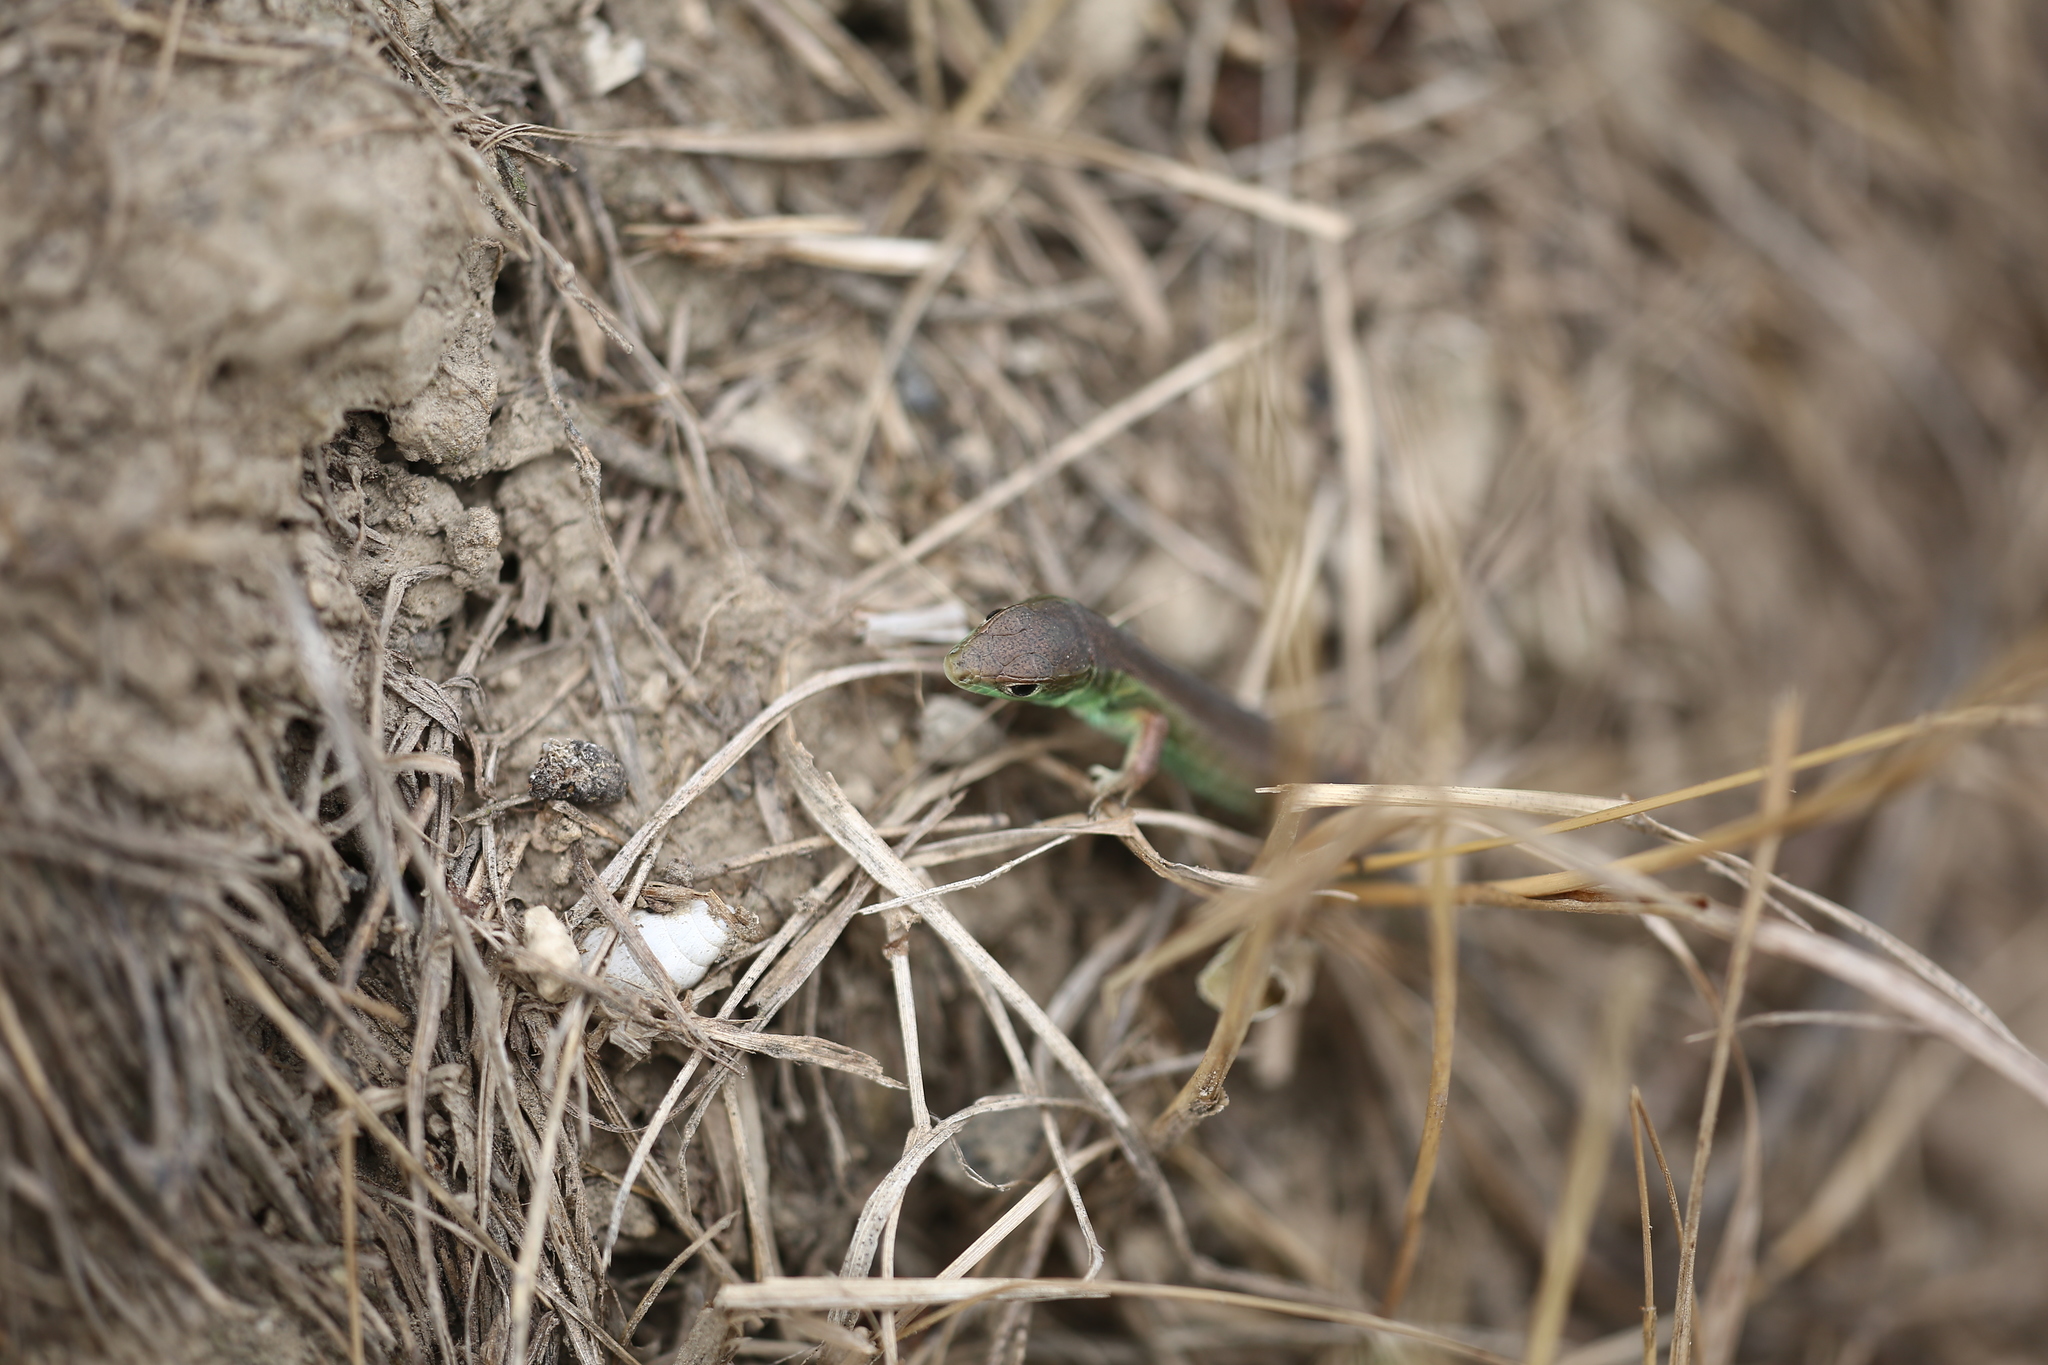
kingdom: Animalia
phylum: Chordata
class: Squamata
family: Lacertidae
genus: Lacerta
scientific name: Lacerta bilineata
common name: Western green lizard
